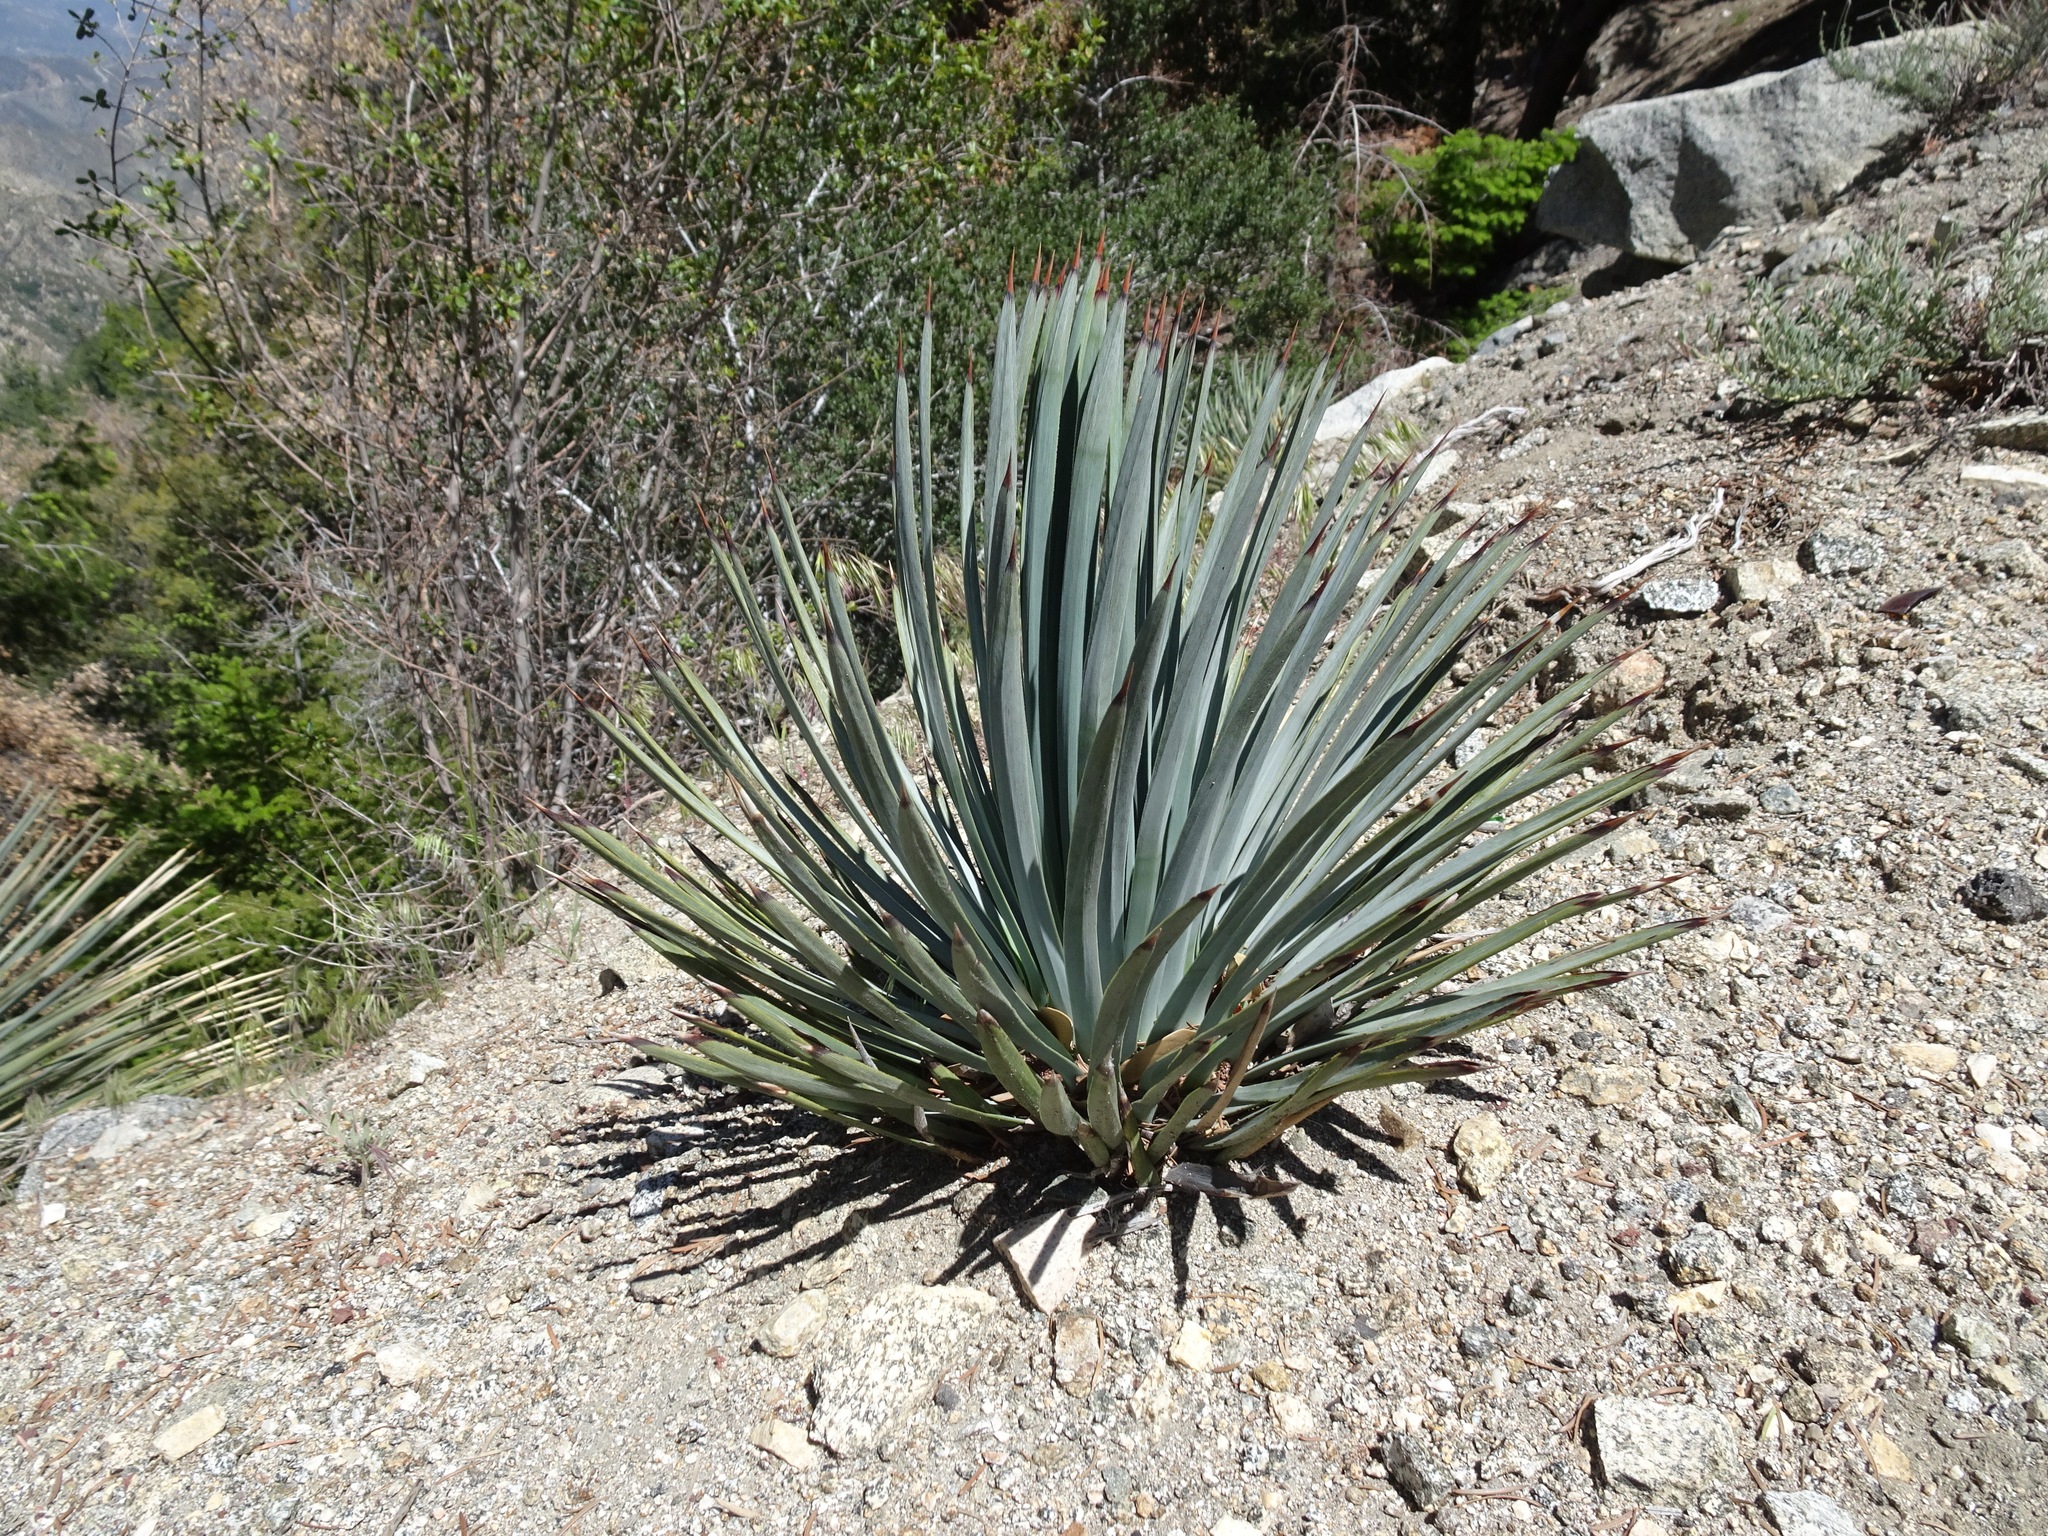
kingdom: Plantae
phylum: Tracheophyta
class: Liliopsida
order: Asparagales
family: Asparagaceae
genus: Hesperoyucca
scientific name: Hesperoyucca whipplei
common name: Our lord's-candle
